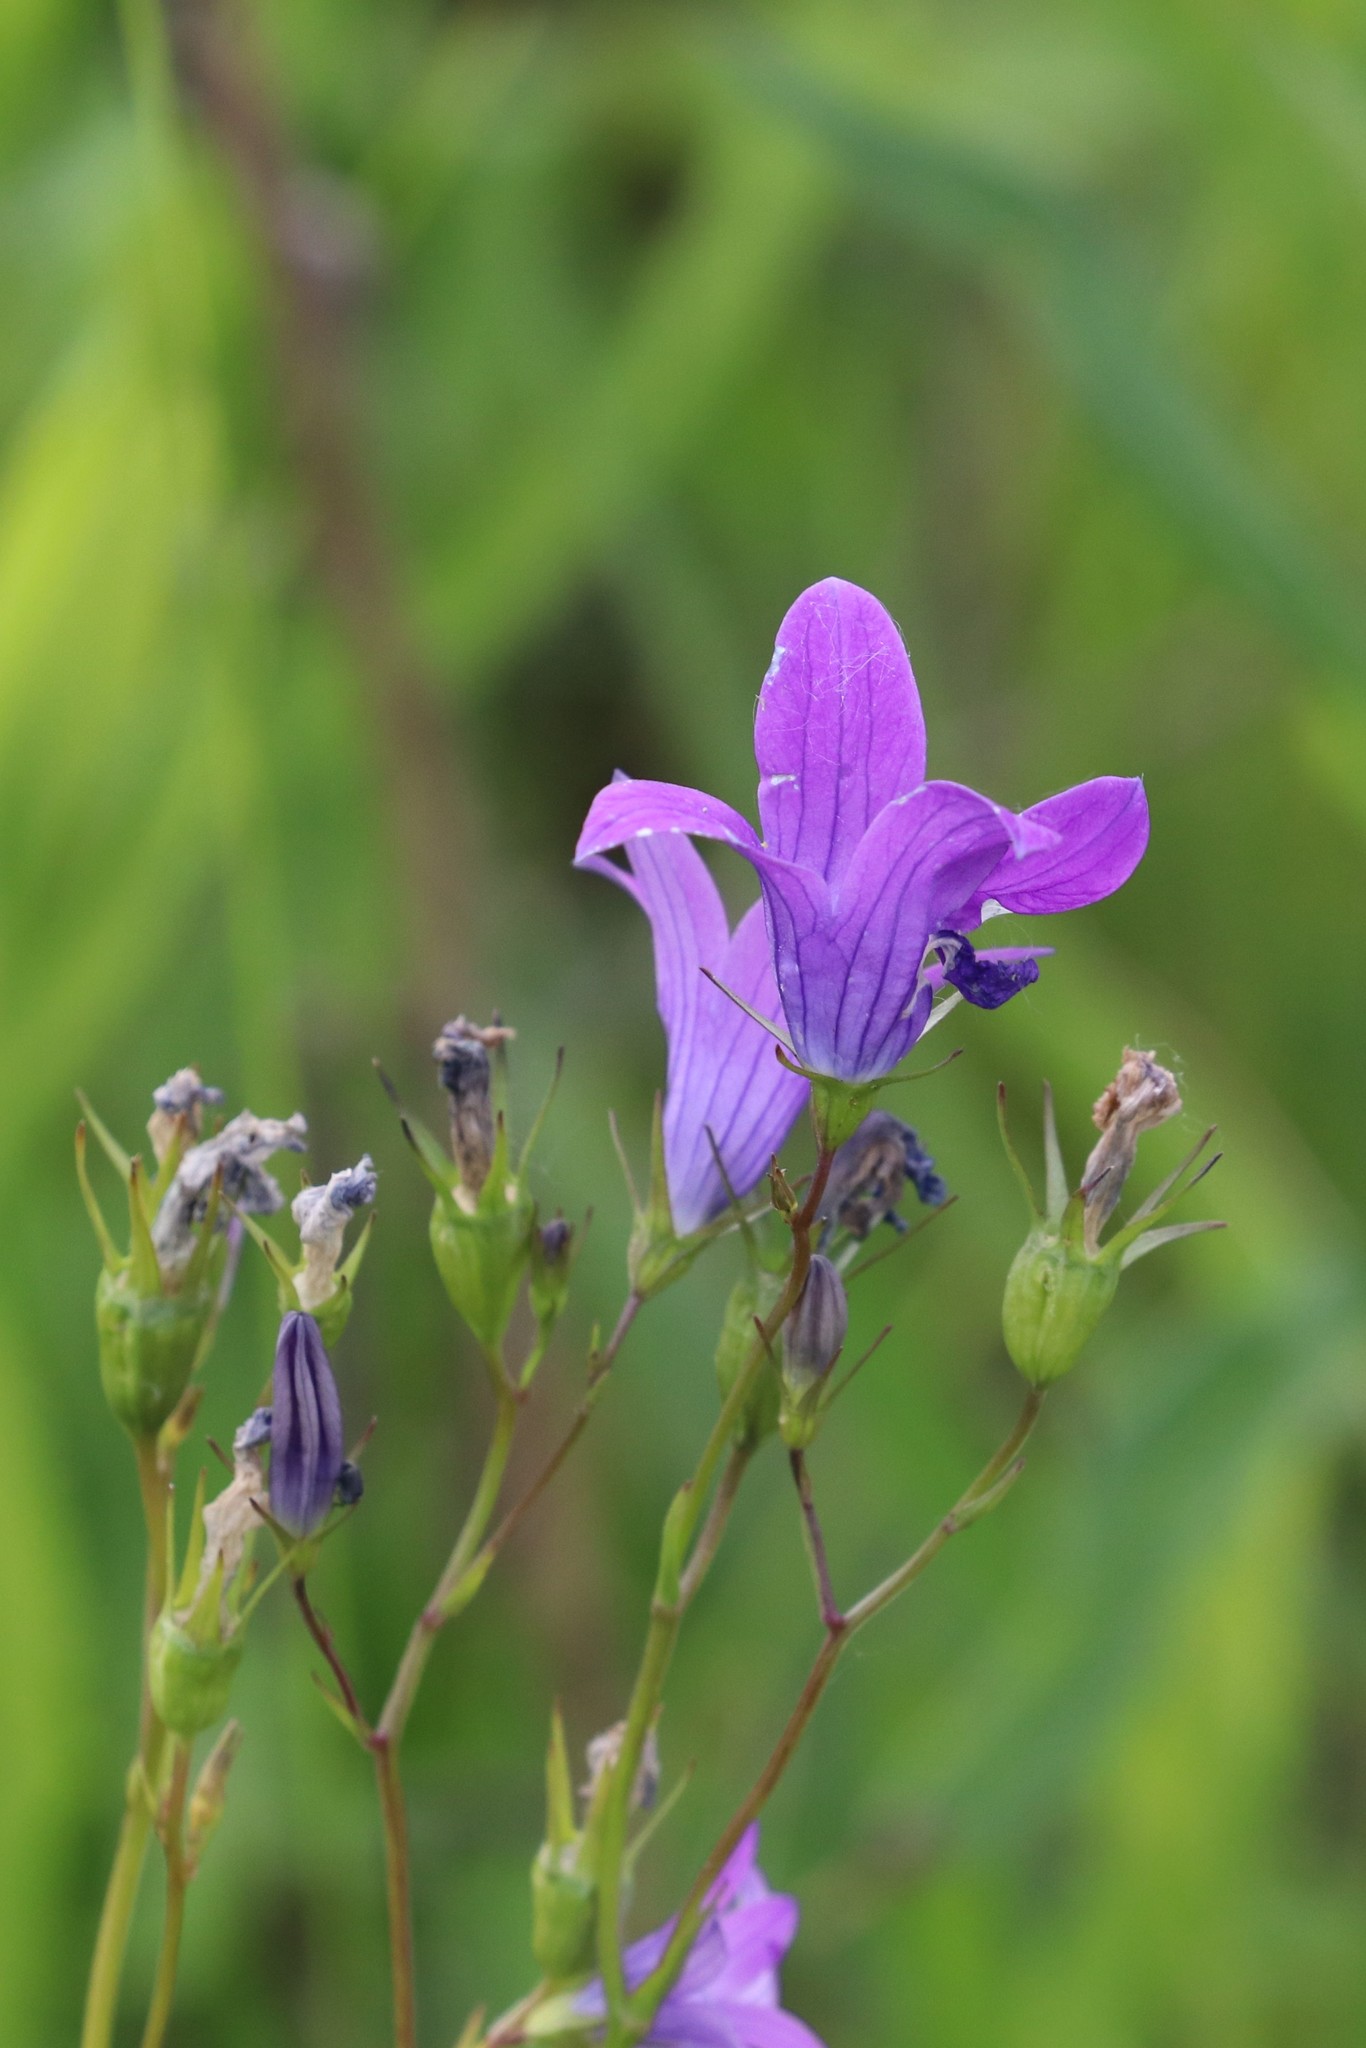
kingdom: Plantae
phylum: Tracheophyta
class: Magnoliopsida
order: Asterales
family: Campanulaceae
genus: Campanula
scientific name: Campanula patula
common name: Spreading bellflower
